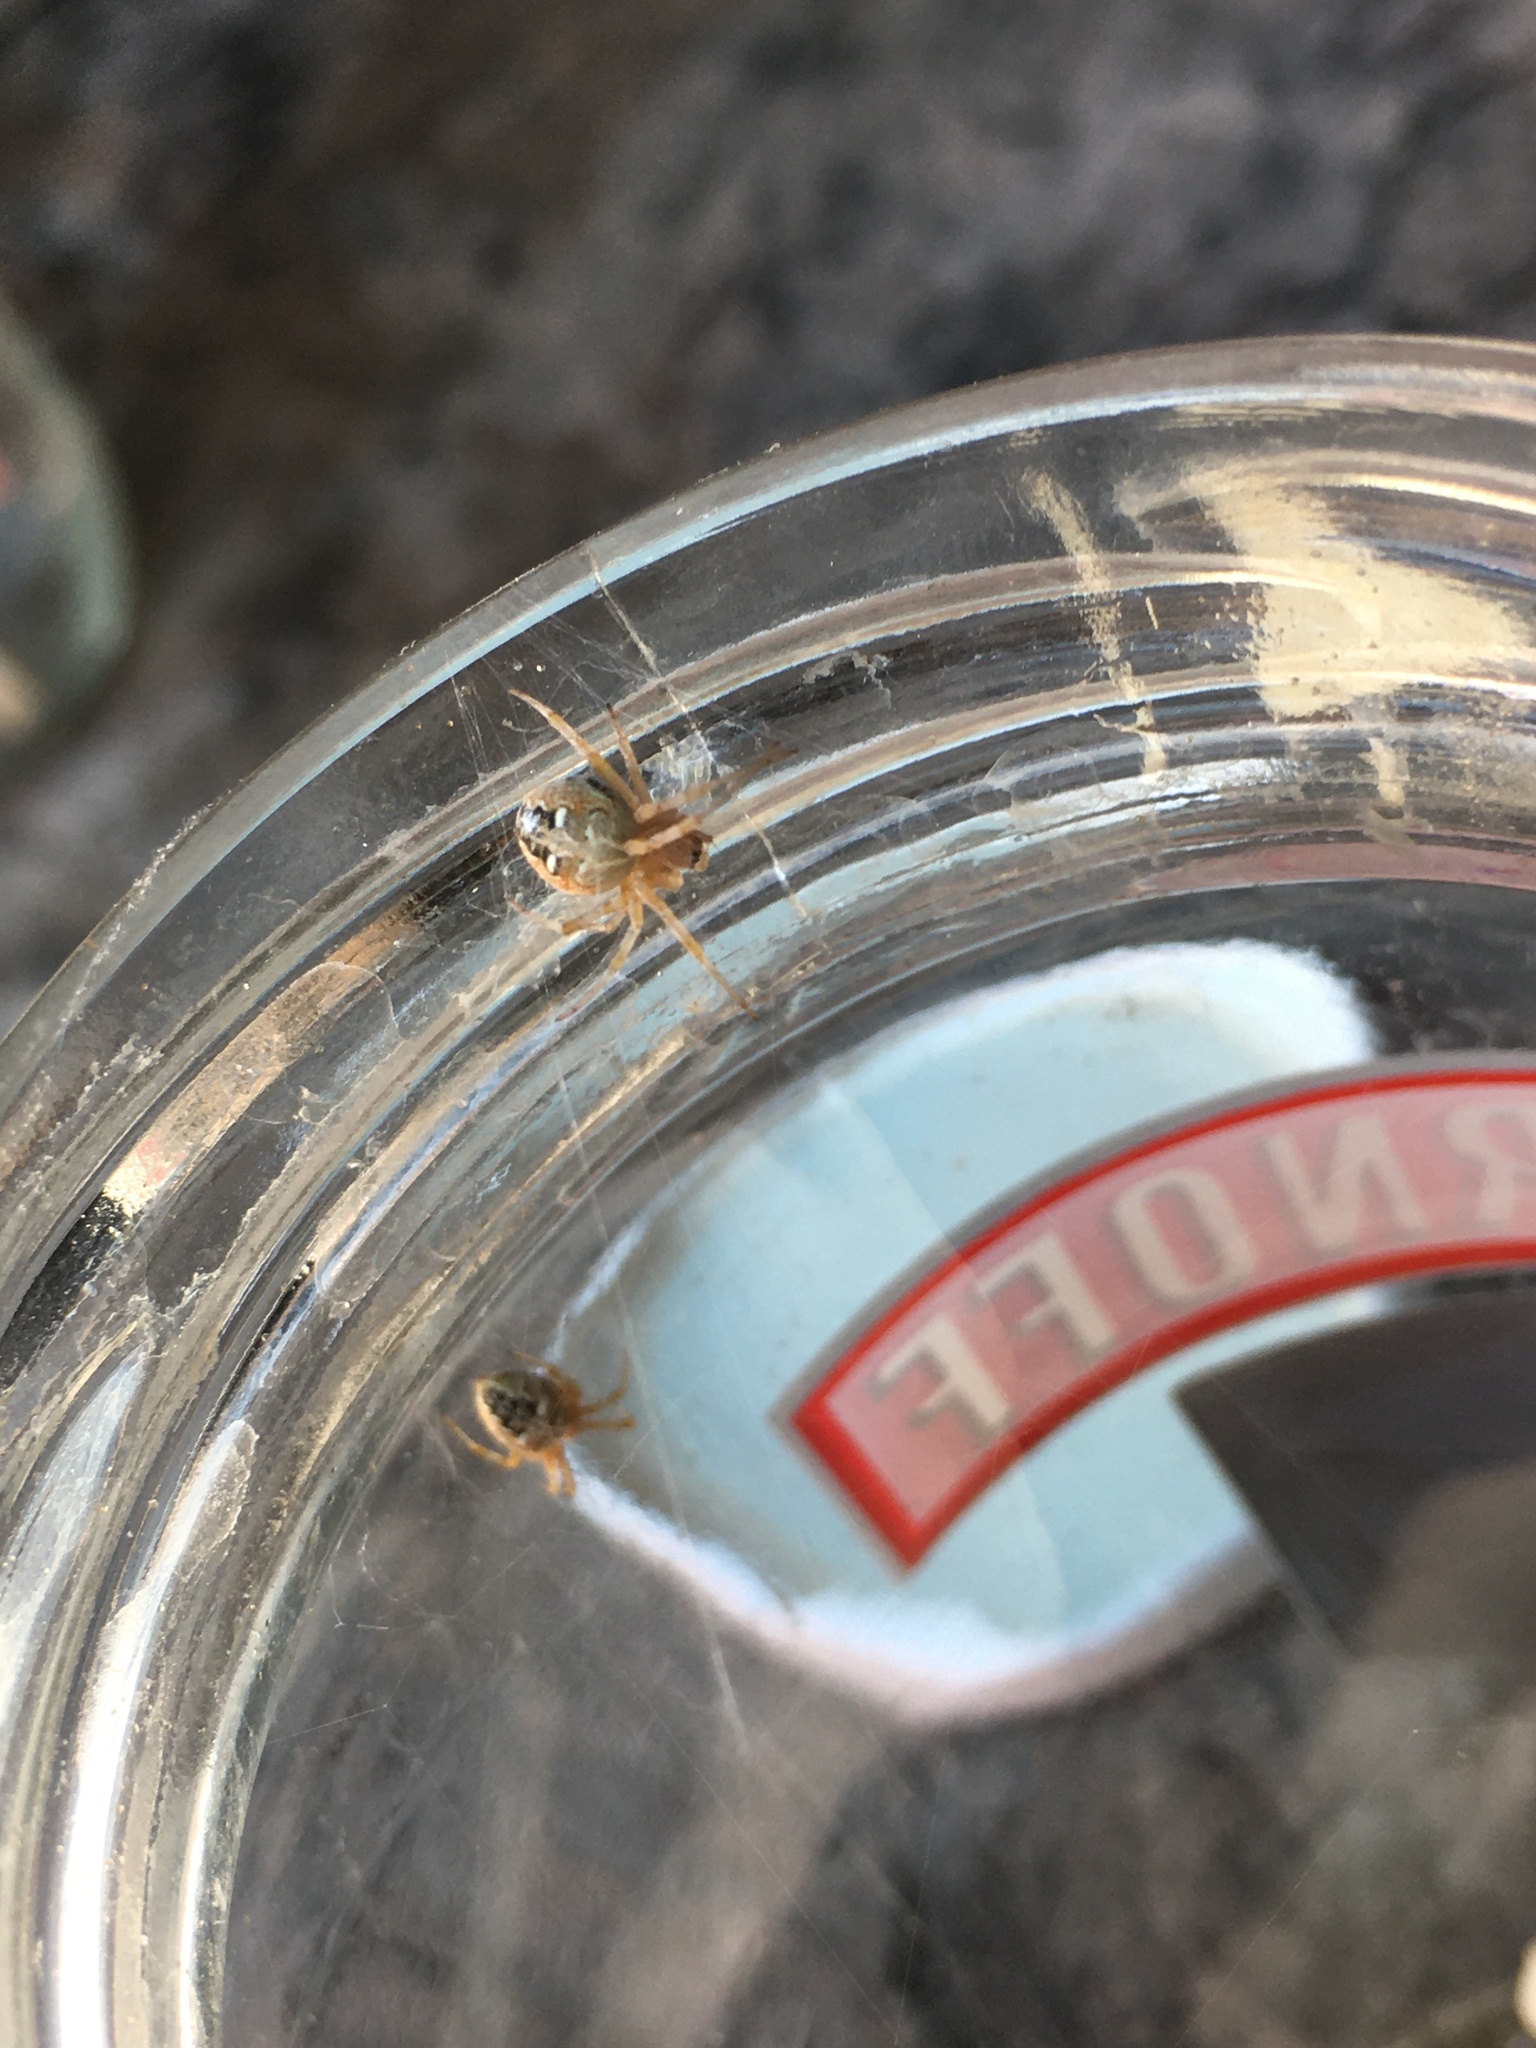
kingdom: Animalia
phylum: Arthropoda
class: Arachnida
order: Araneae
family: Araneidae
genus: Metepeira
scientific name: Metepeira
